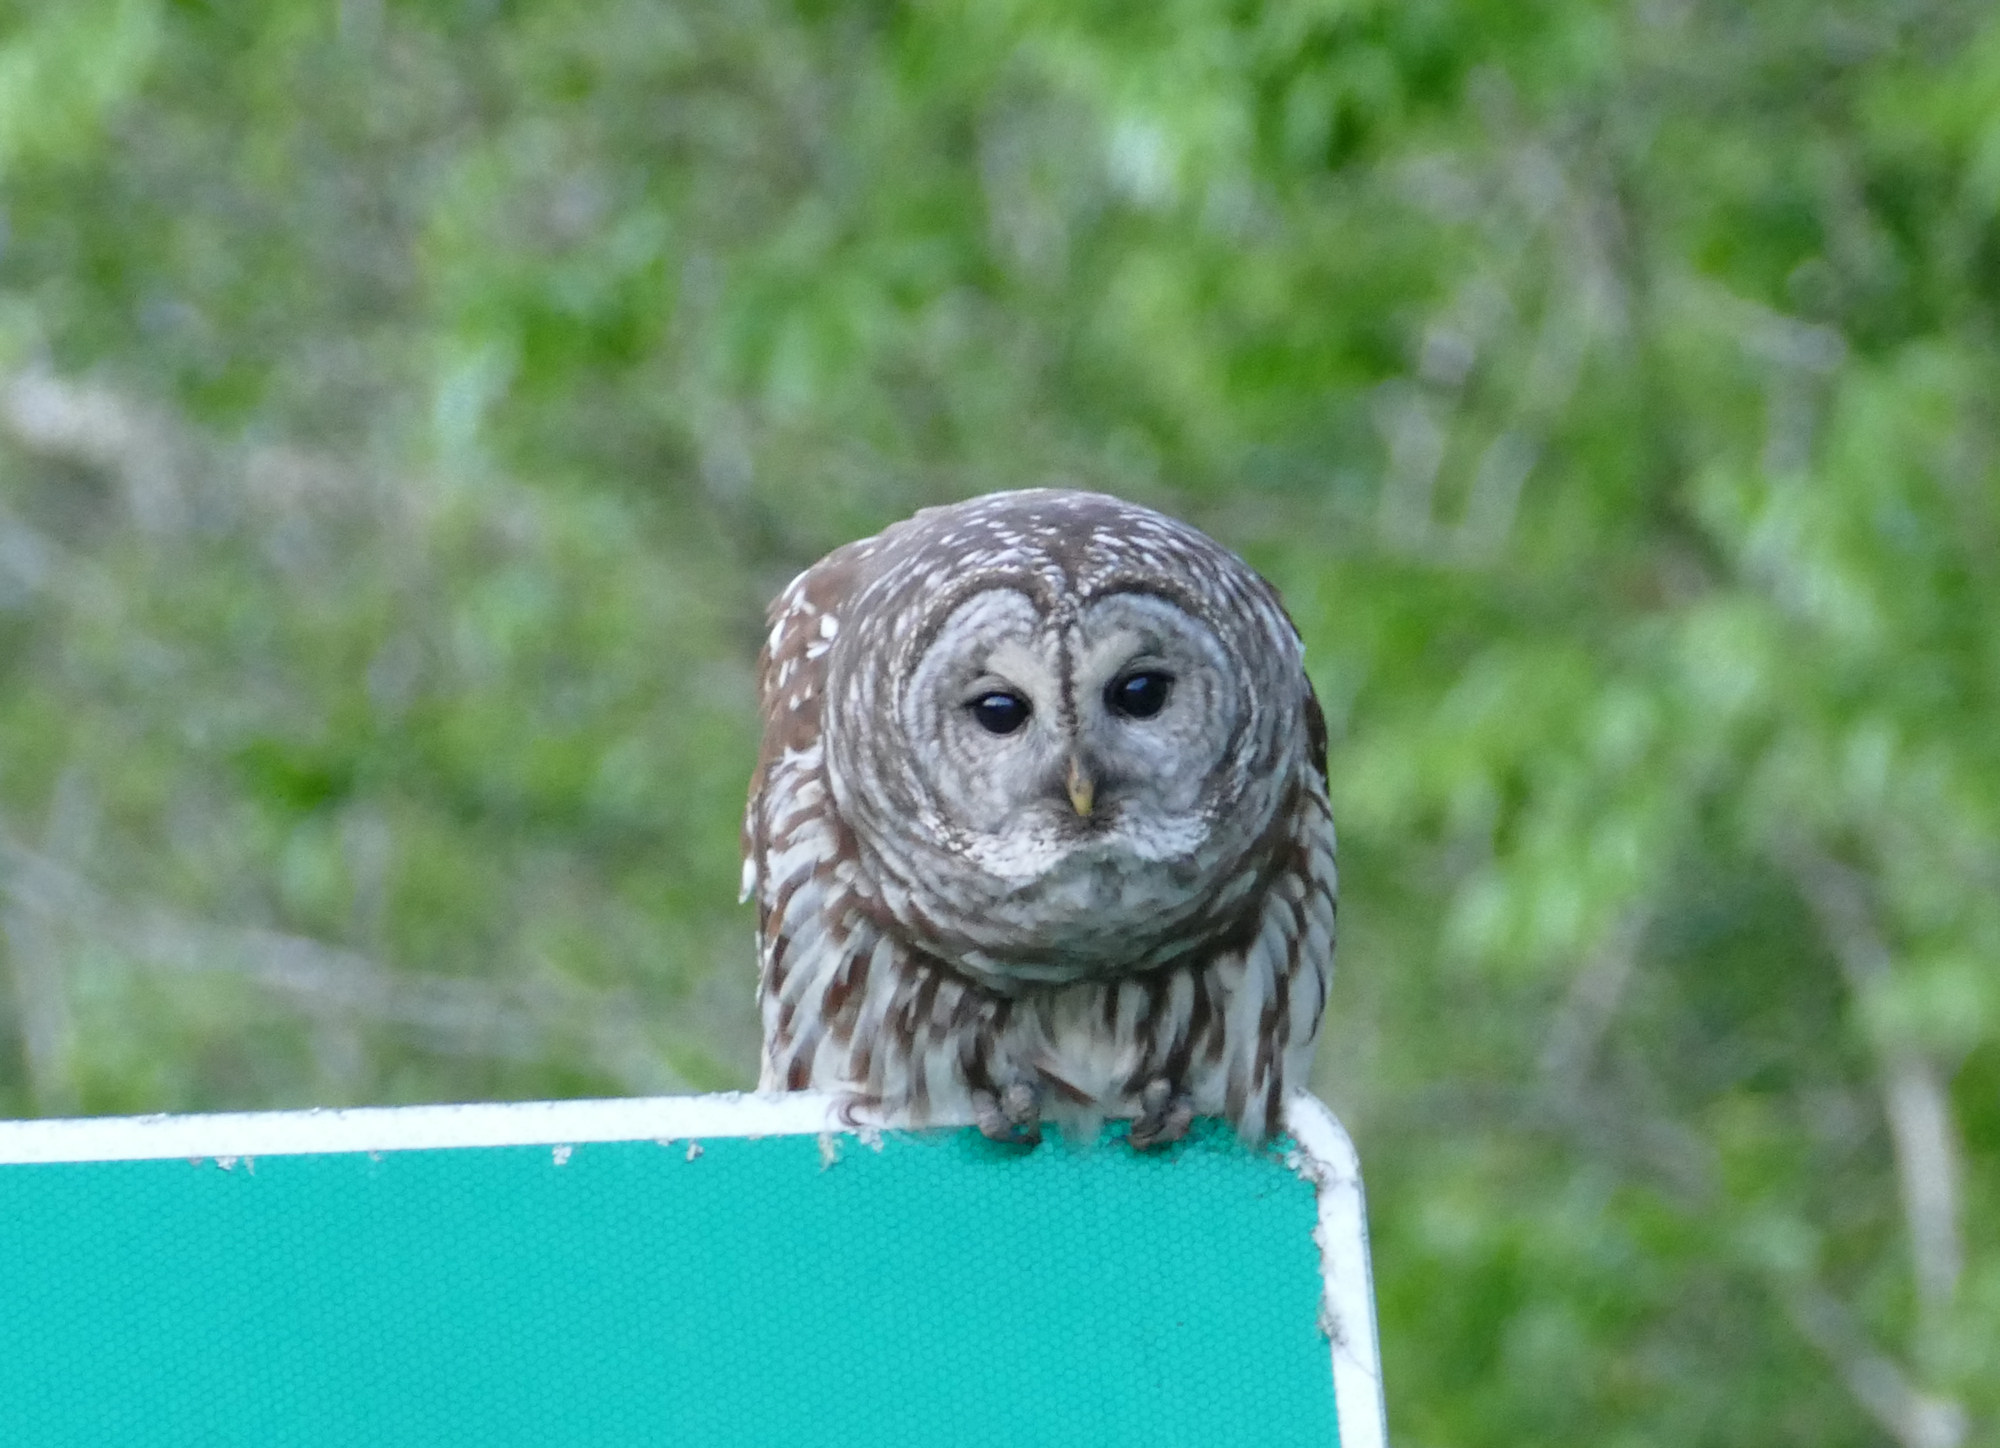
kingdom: Animalia
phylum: Chordata
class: Aves
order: Strigiformes
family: Strigidae
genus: Strix
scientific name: Strix varia
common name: Barred owl
